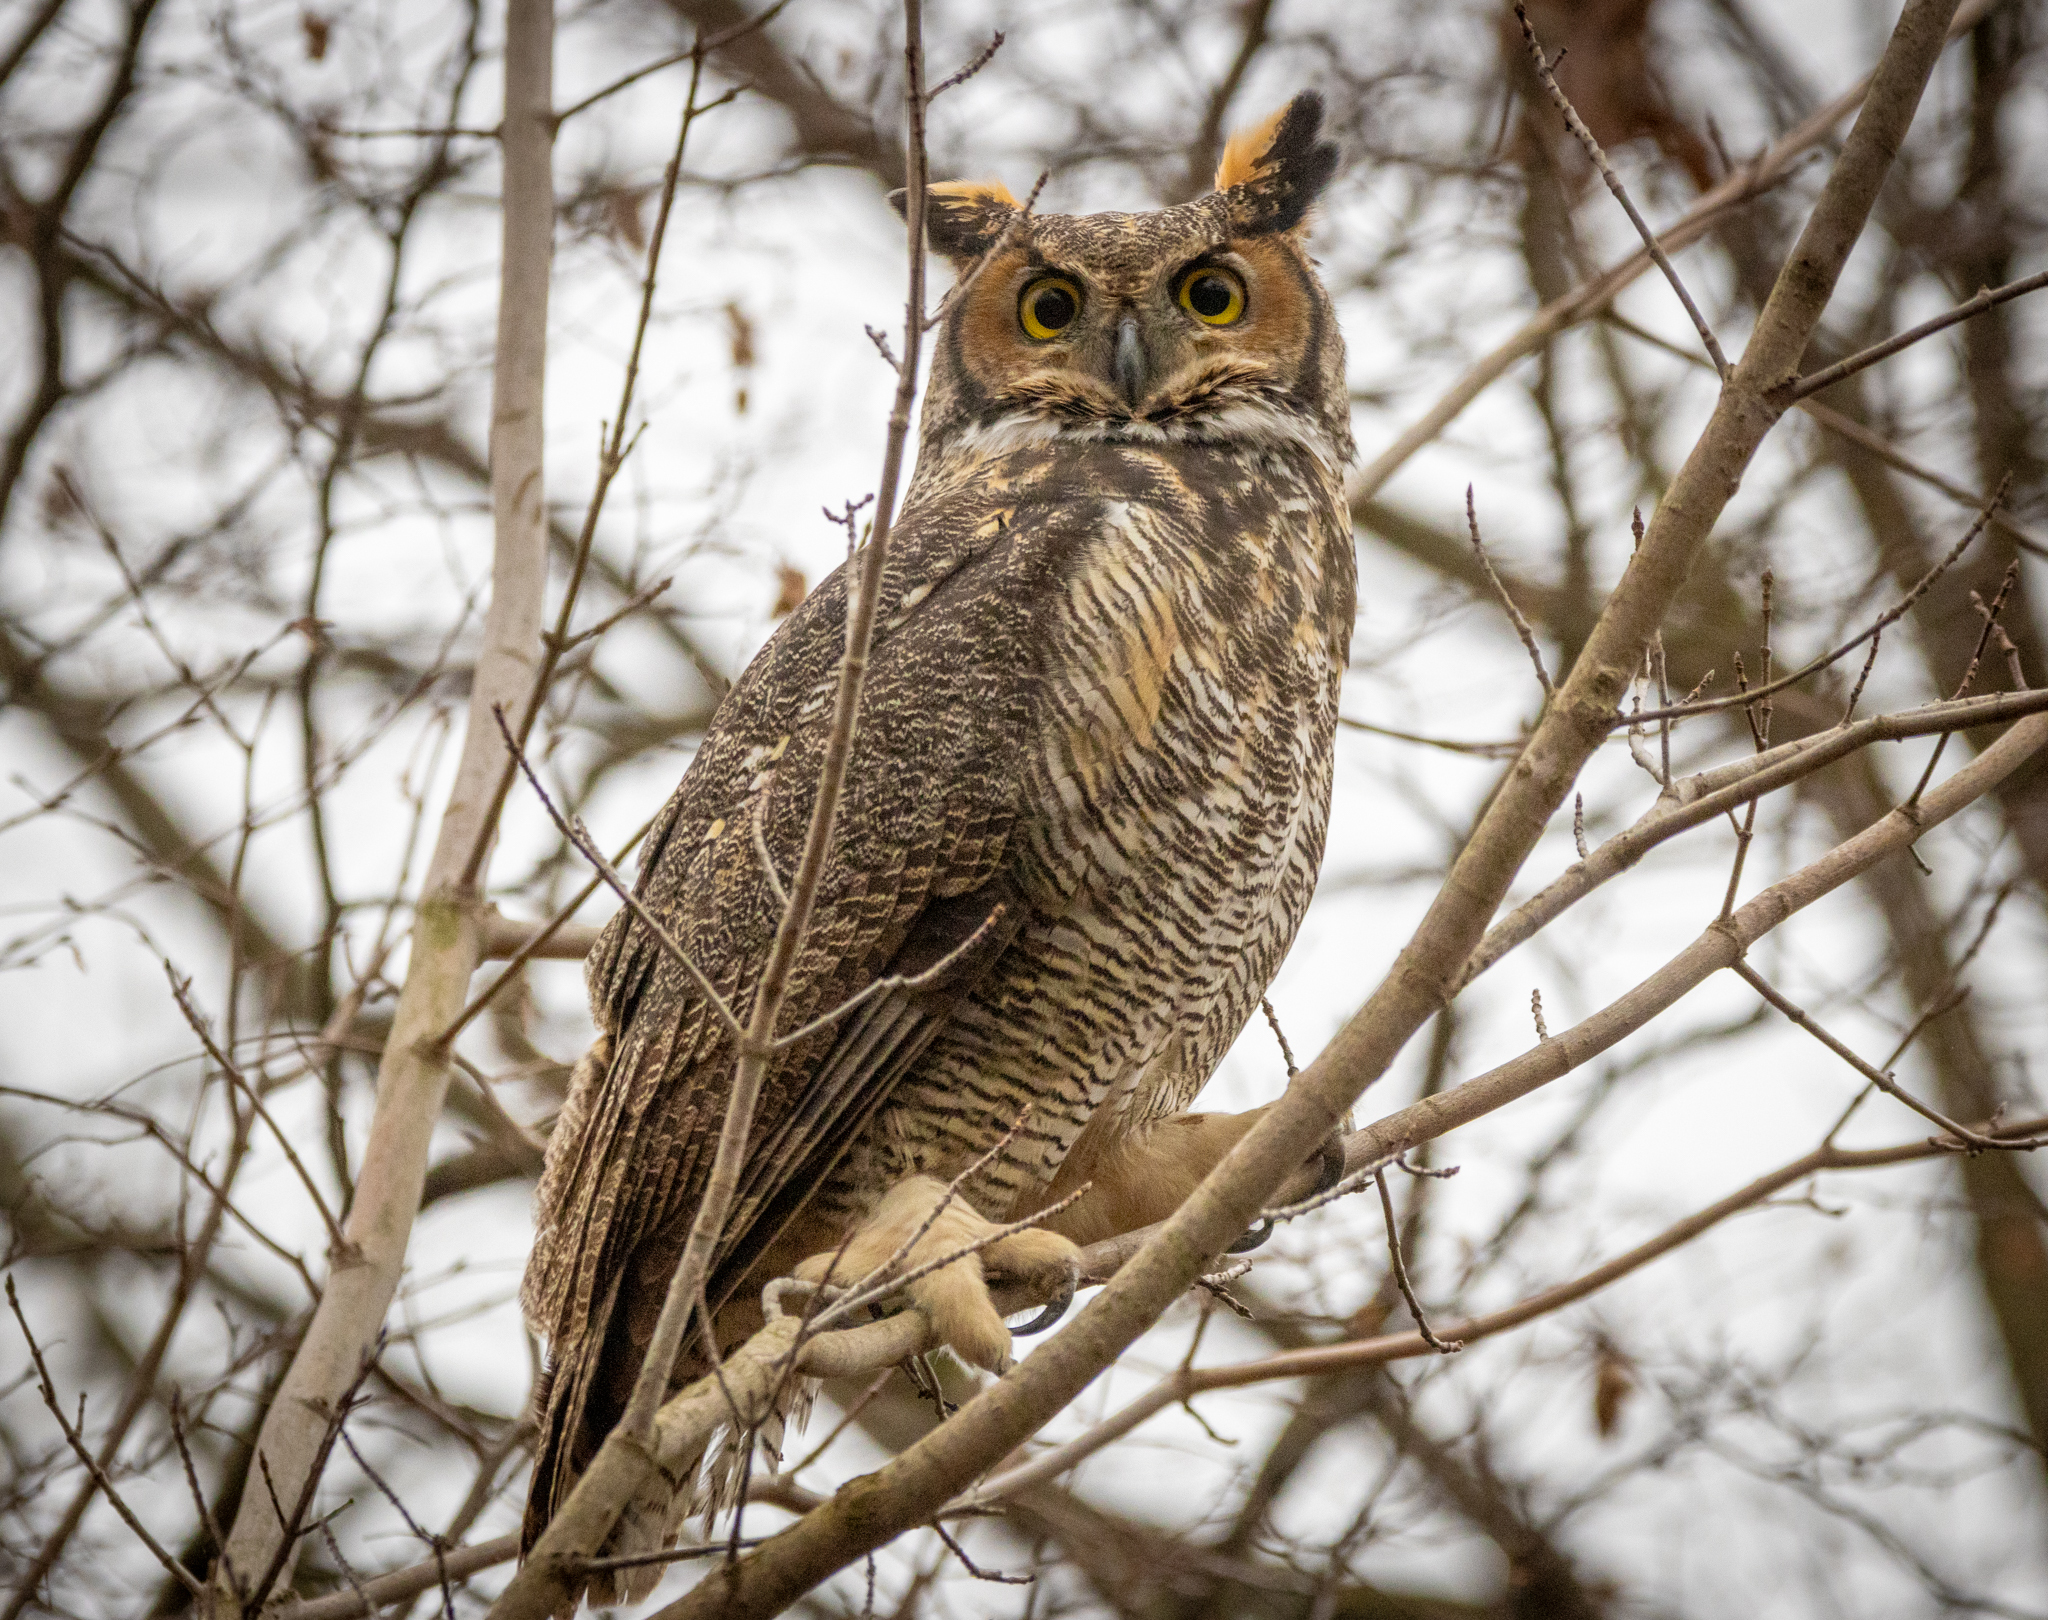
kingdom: Animalia
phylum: Chordata
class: Aves
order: Strigiformes
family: Strigidae
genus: Bubo
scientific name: Bubo virginianus
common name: Great horned owl
